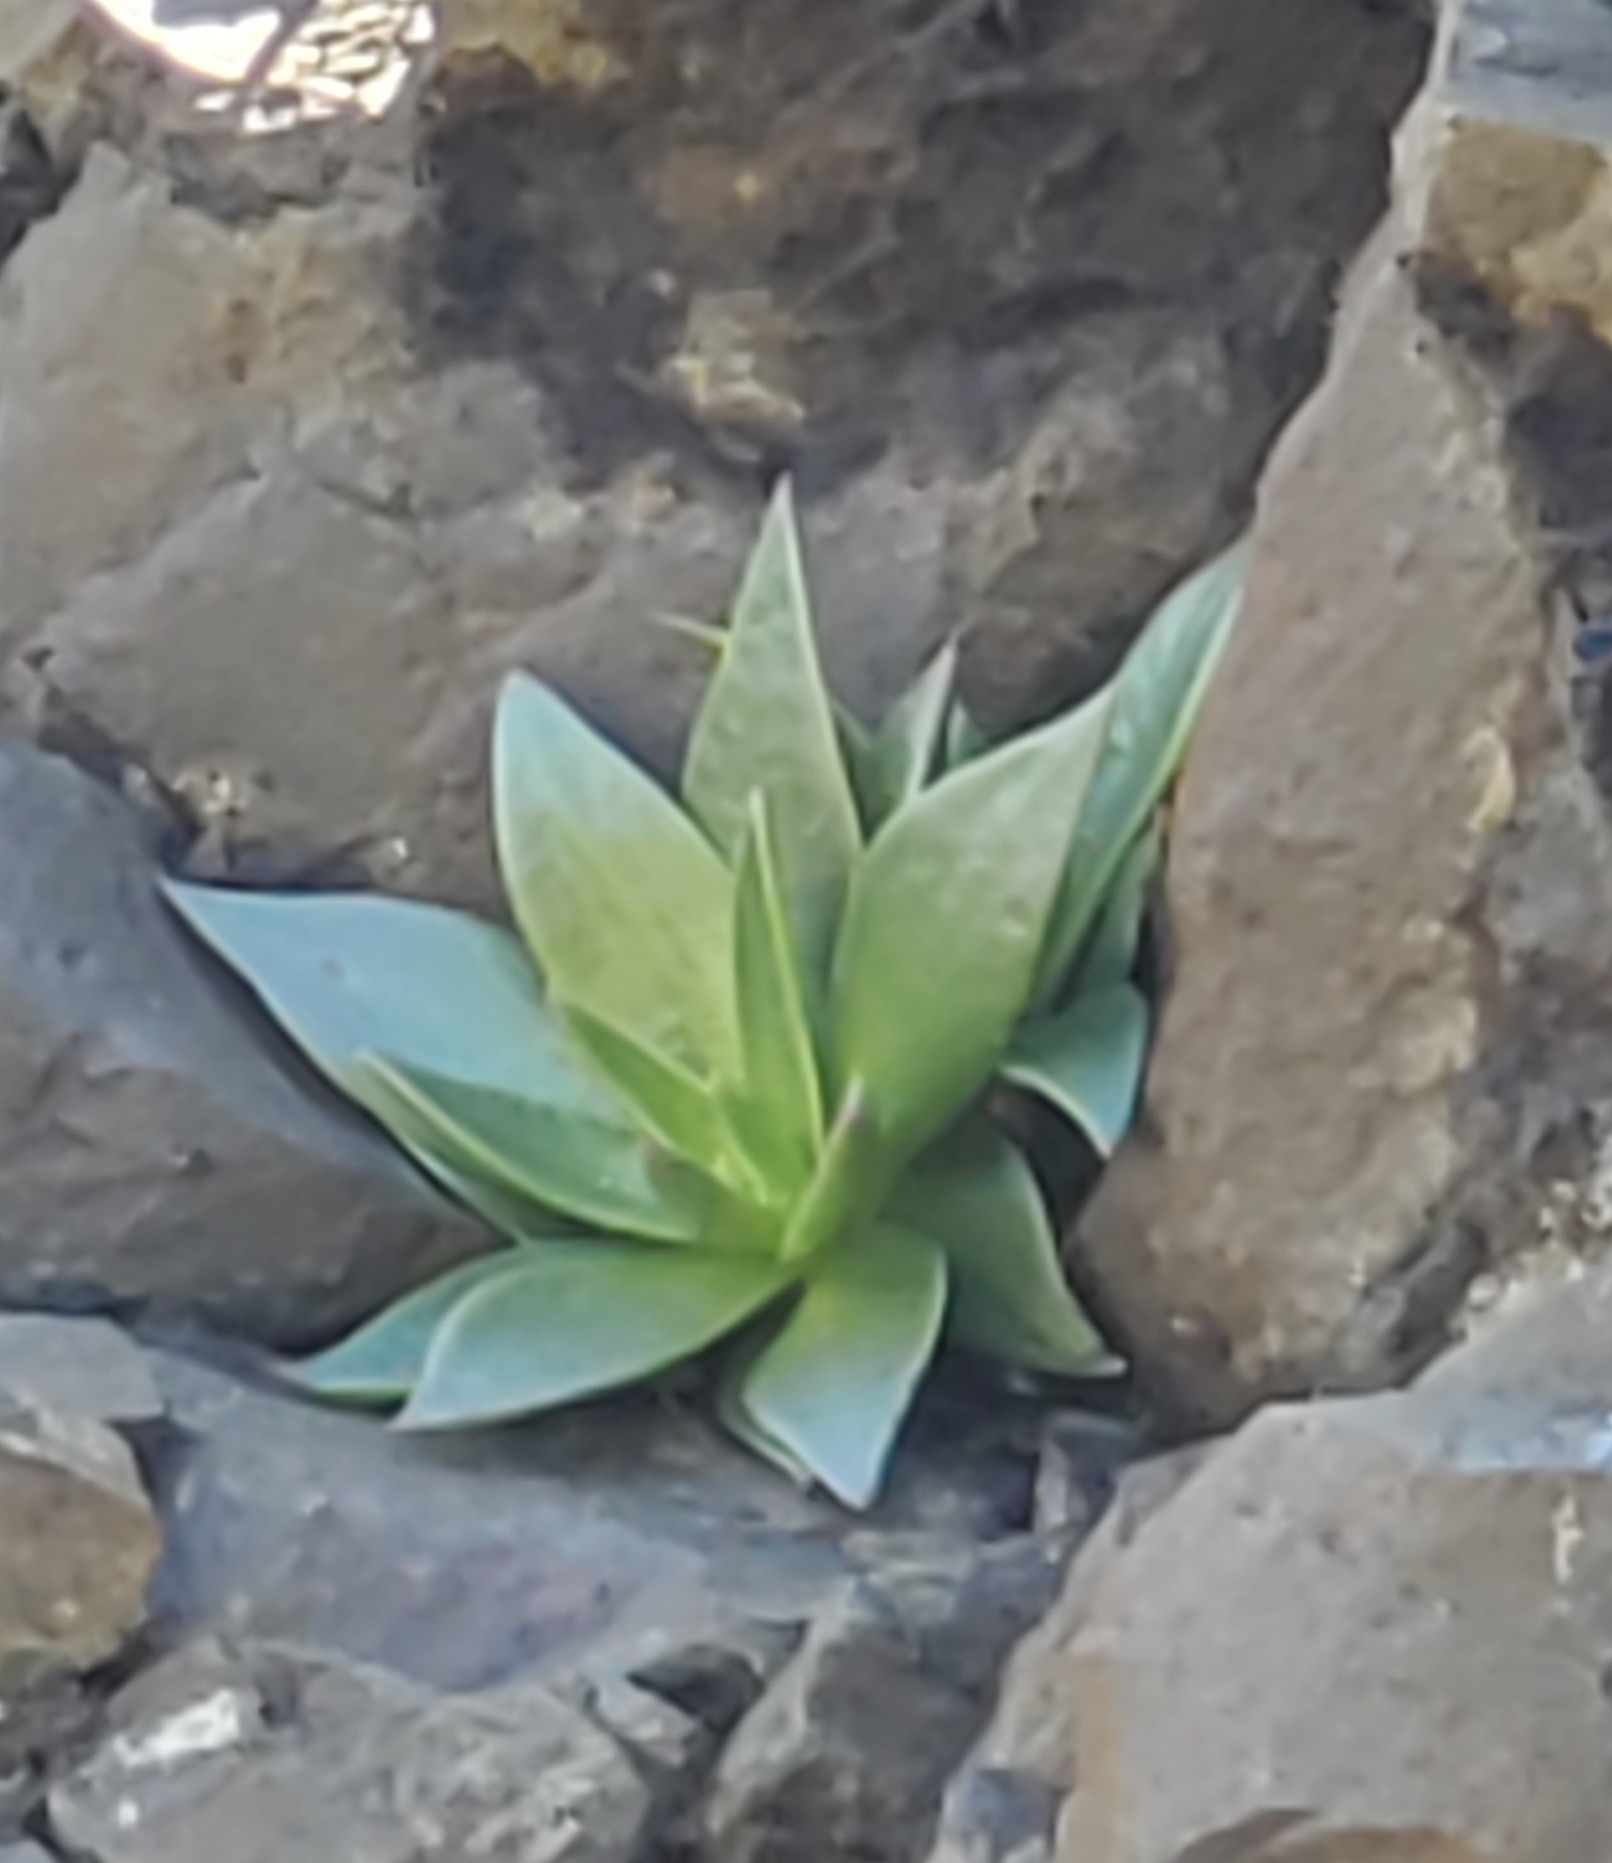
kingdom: Plantae
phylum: Tracheophyta
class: Magnoliopsida
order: Saxifragales
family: Crassulaceae
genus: Dudleya
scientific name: Dudleya lanceolata
